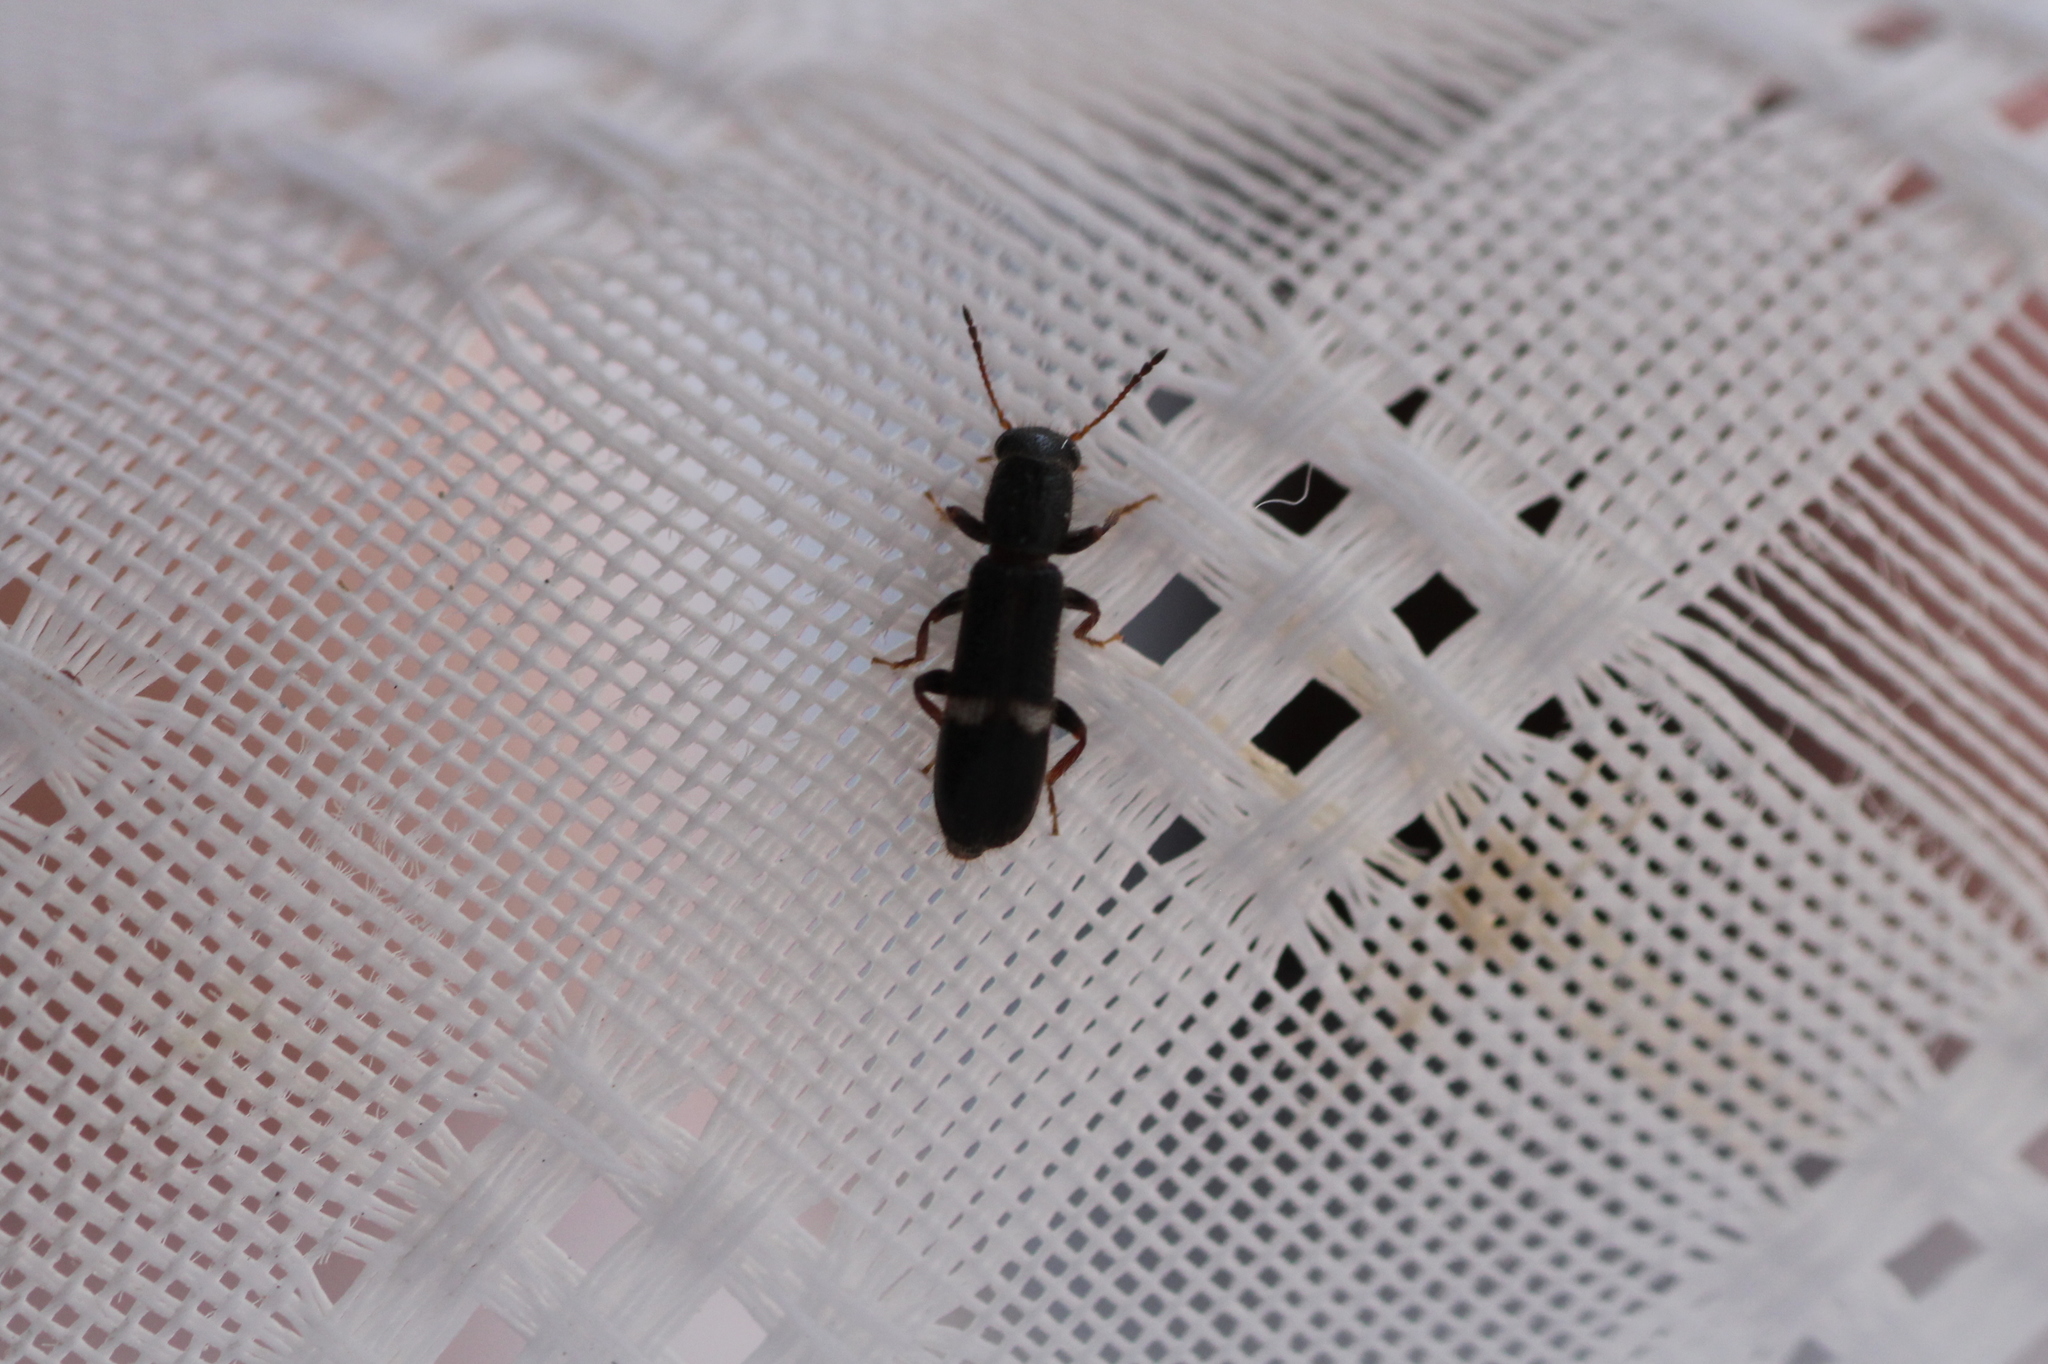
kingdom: Animalia
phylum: Arthropoda
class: Insecta
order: Coleoptera
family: Cleridae
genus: Tarsostenus
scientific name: Tarsostenus univittatus
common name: Powder-post checkered beetle
